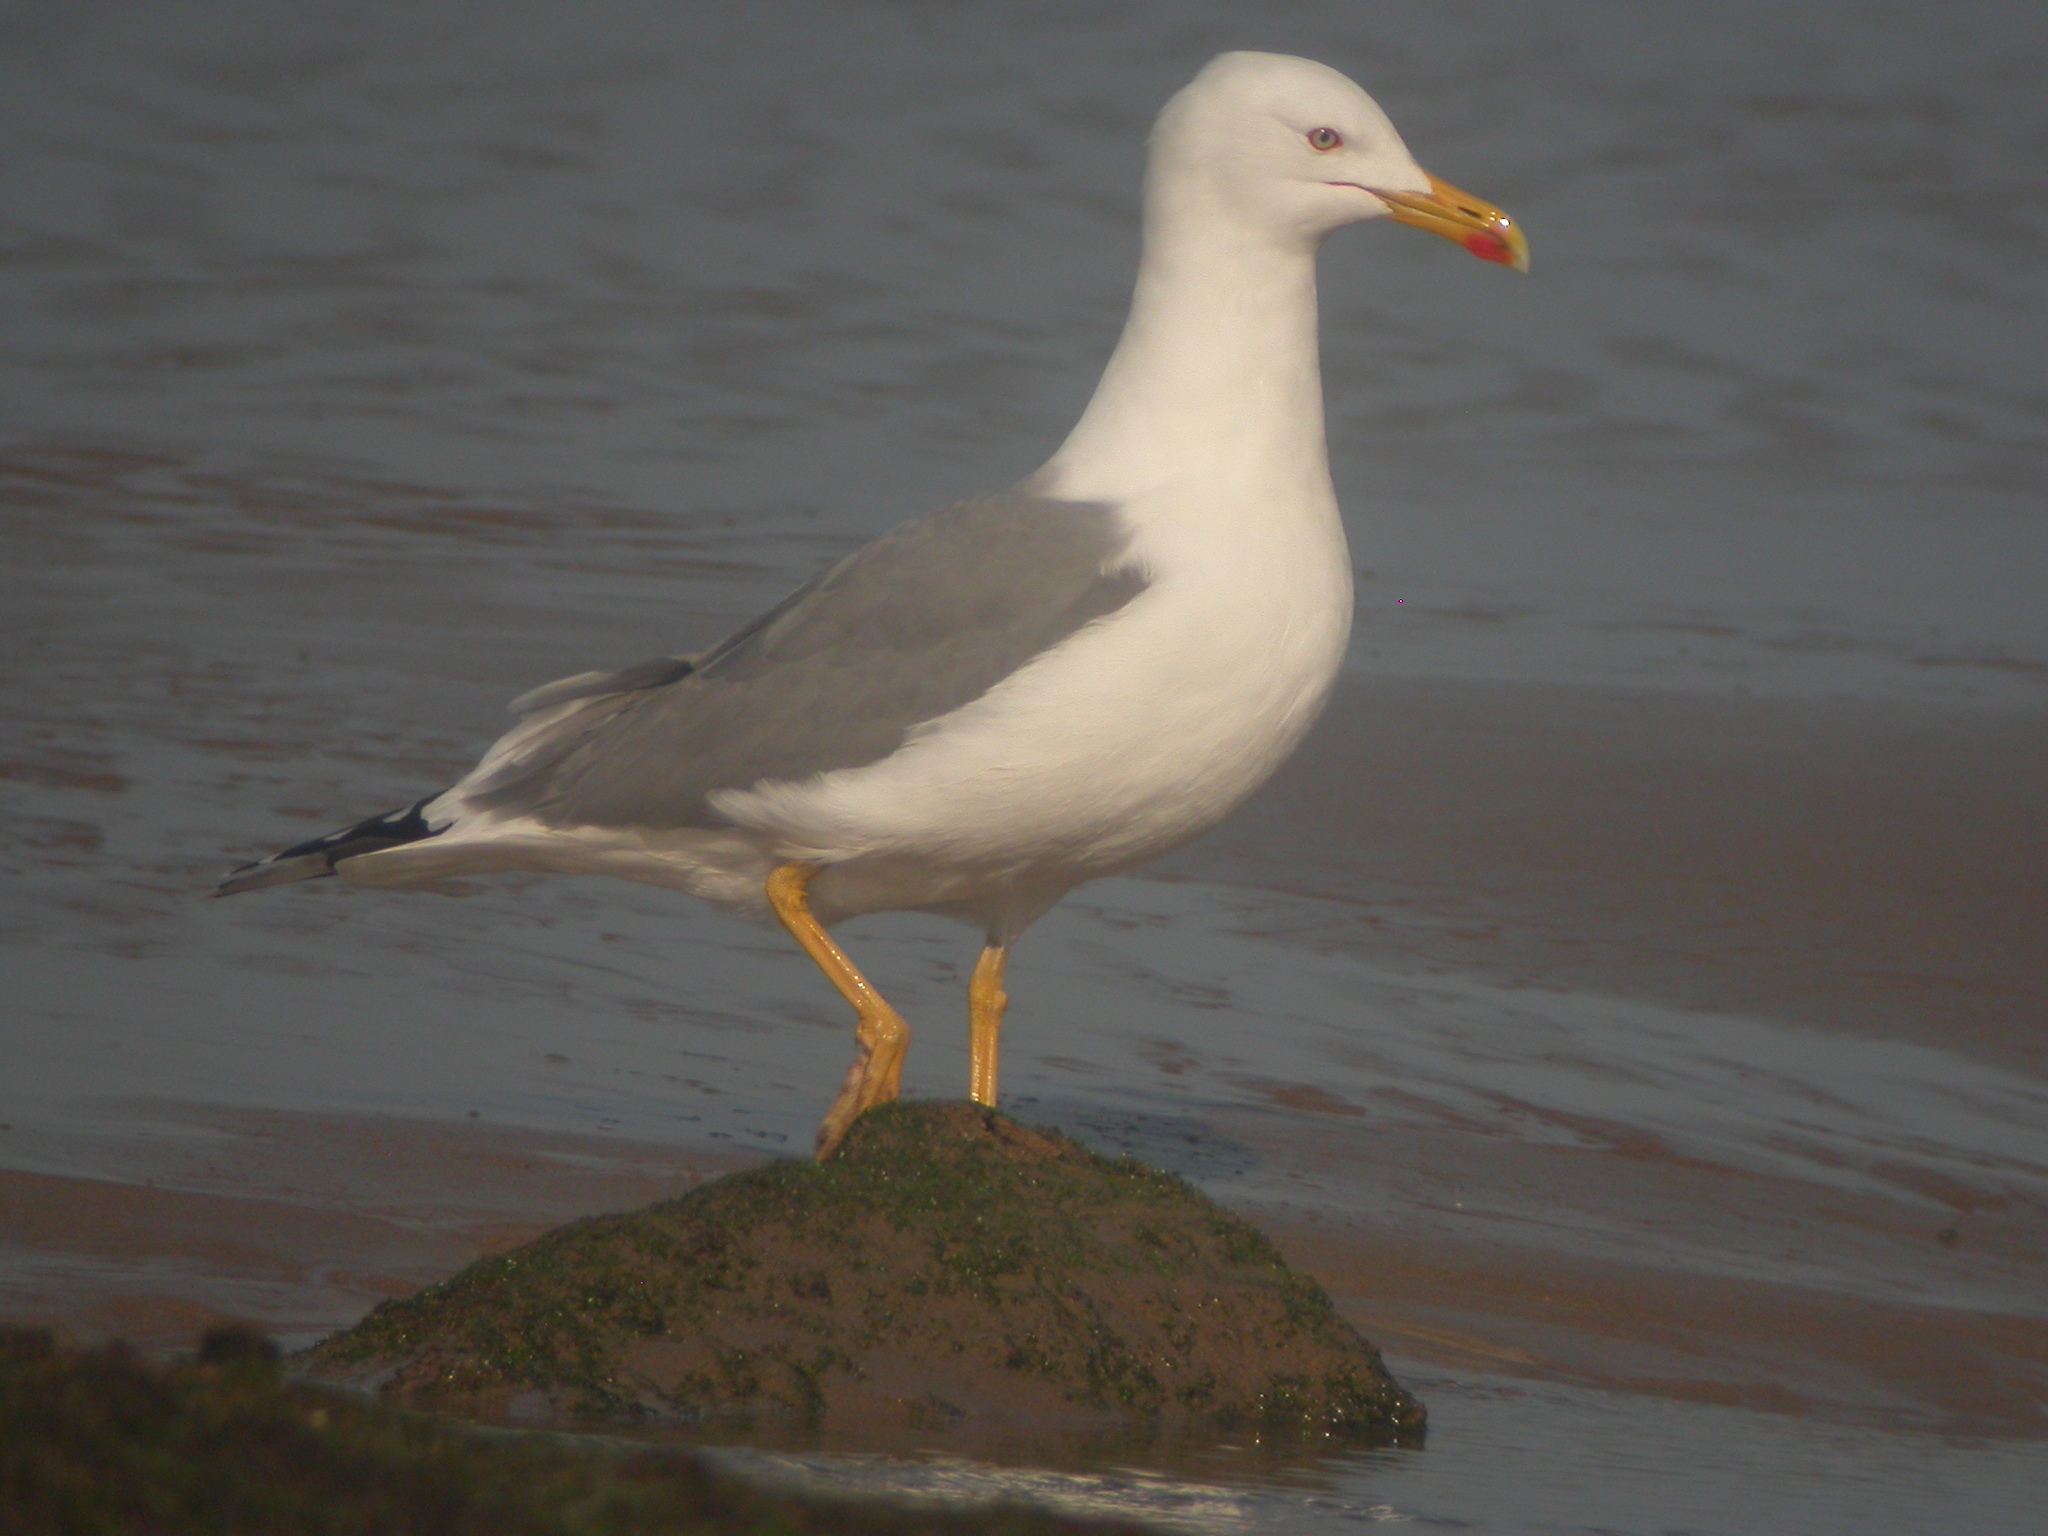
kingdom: Animalia
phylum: Chordata
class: Aves
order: Charadriiformes
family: Laridae
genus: Larus
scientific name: Larus michahellis
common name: Yellow-legged gull
